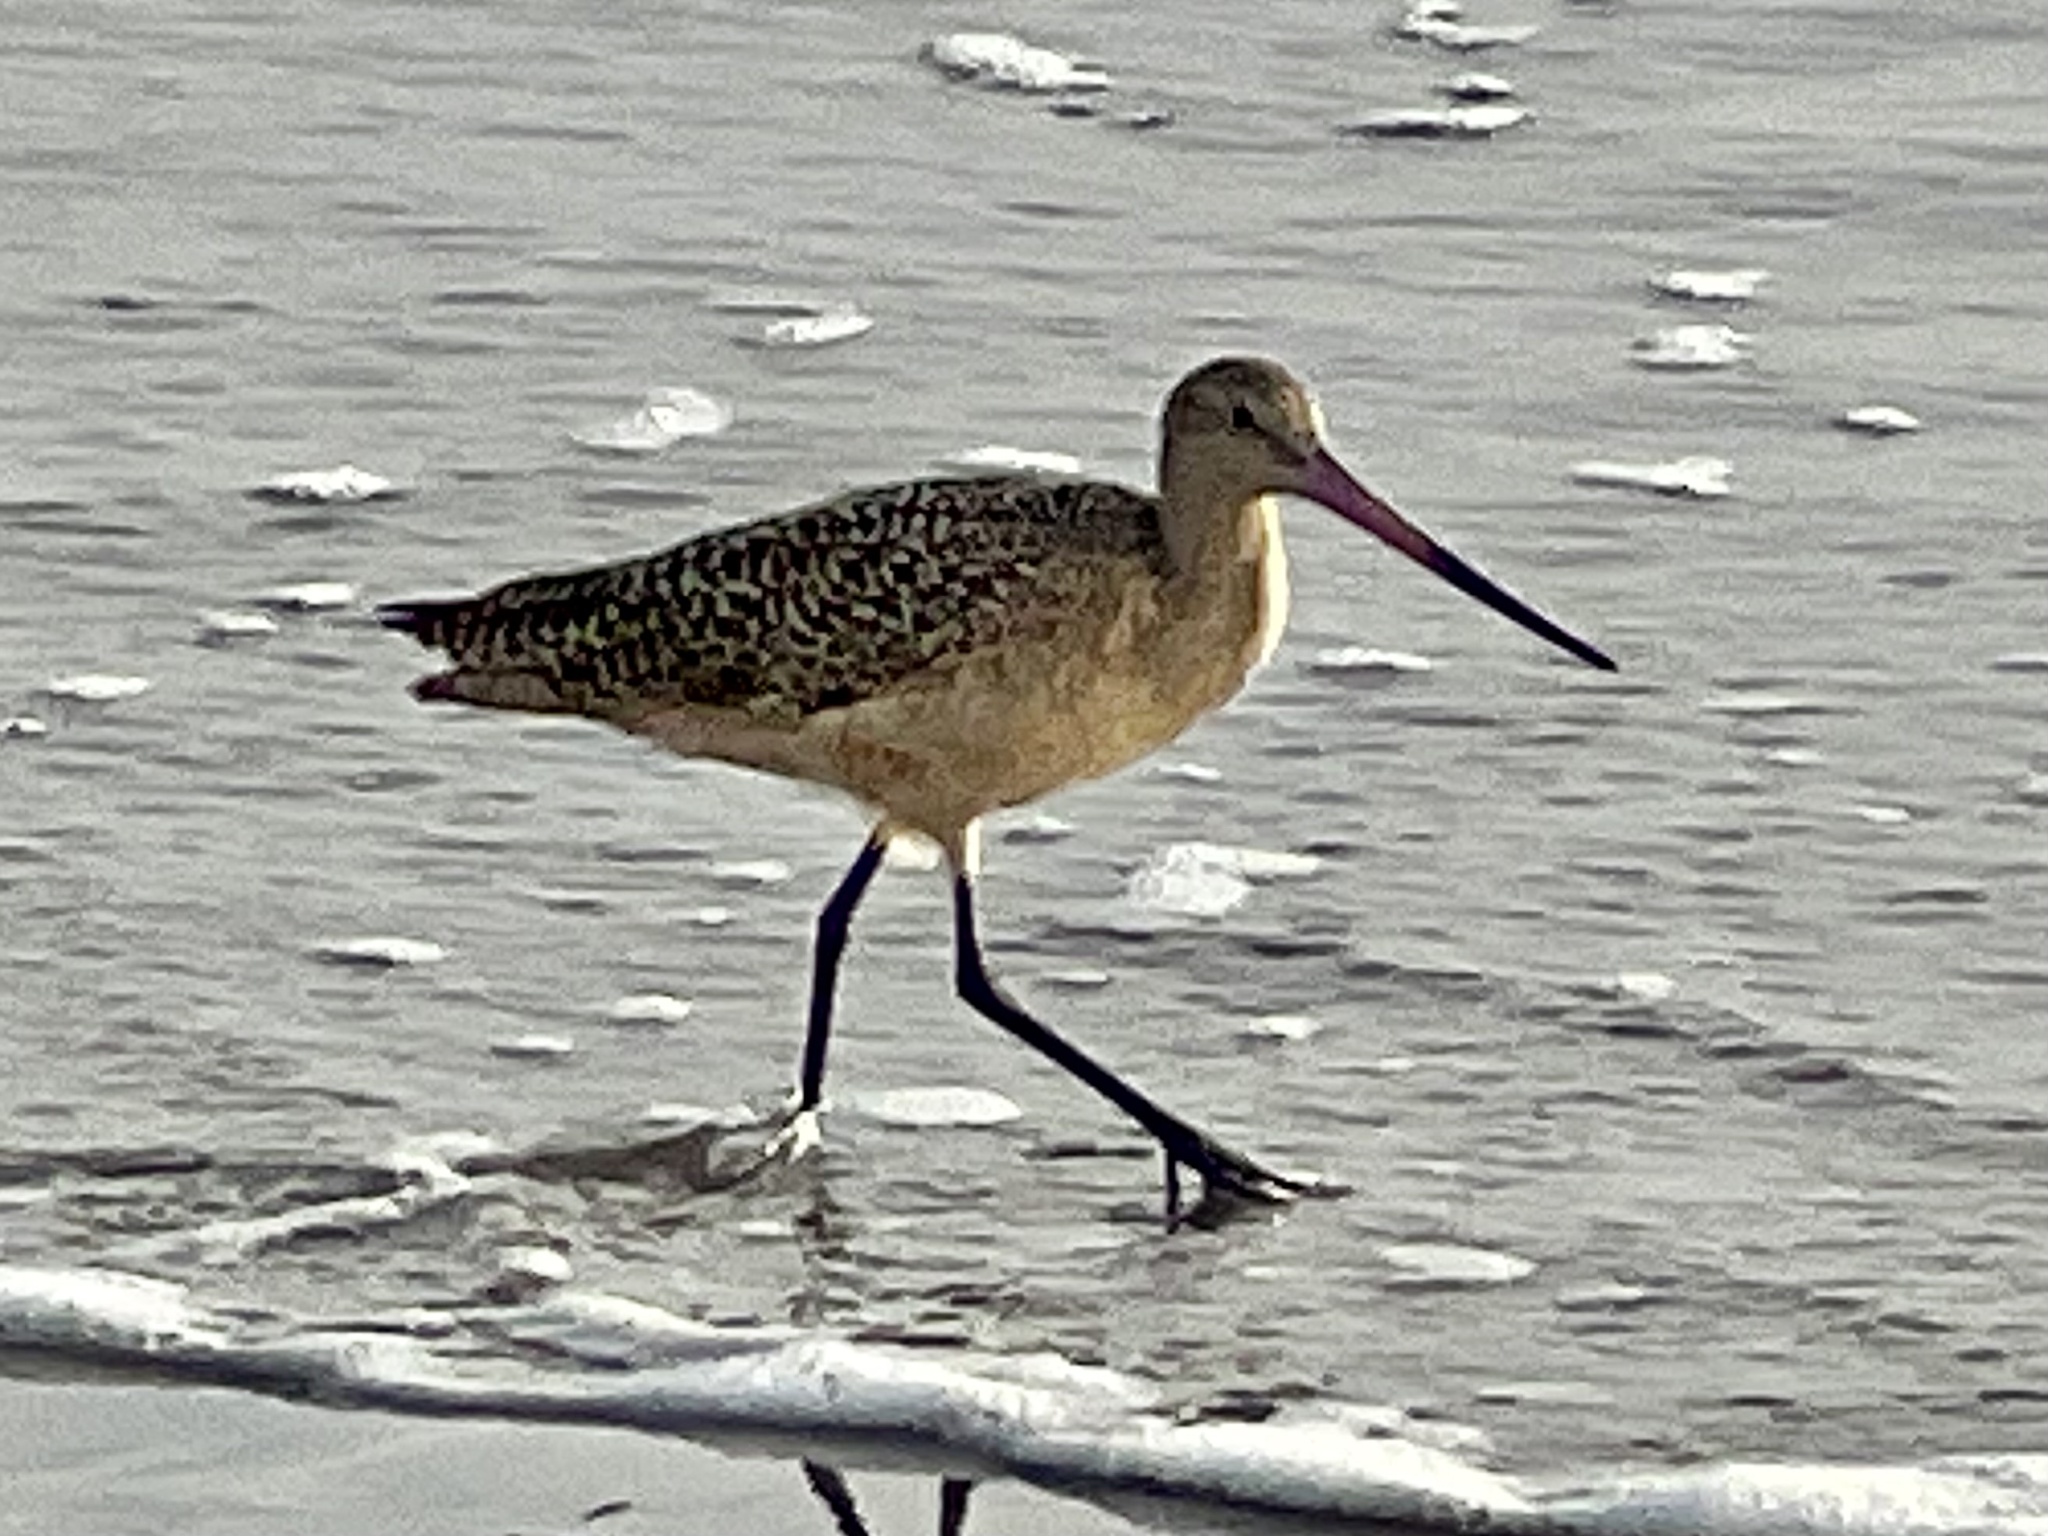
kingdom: Animalia
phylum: Chordata
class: Aves
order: Charadriiformes
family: Scolopacidae
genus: Limosa
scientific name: Limosa fedoa
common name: Marbled godwit
